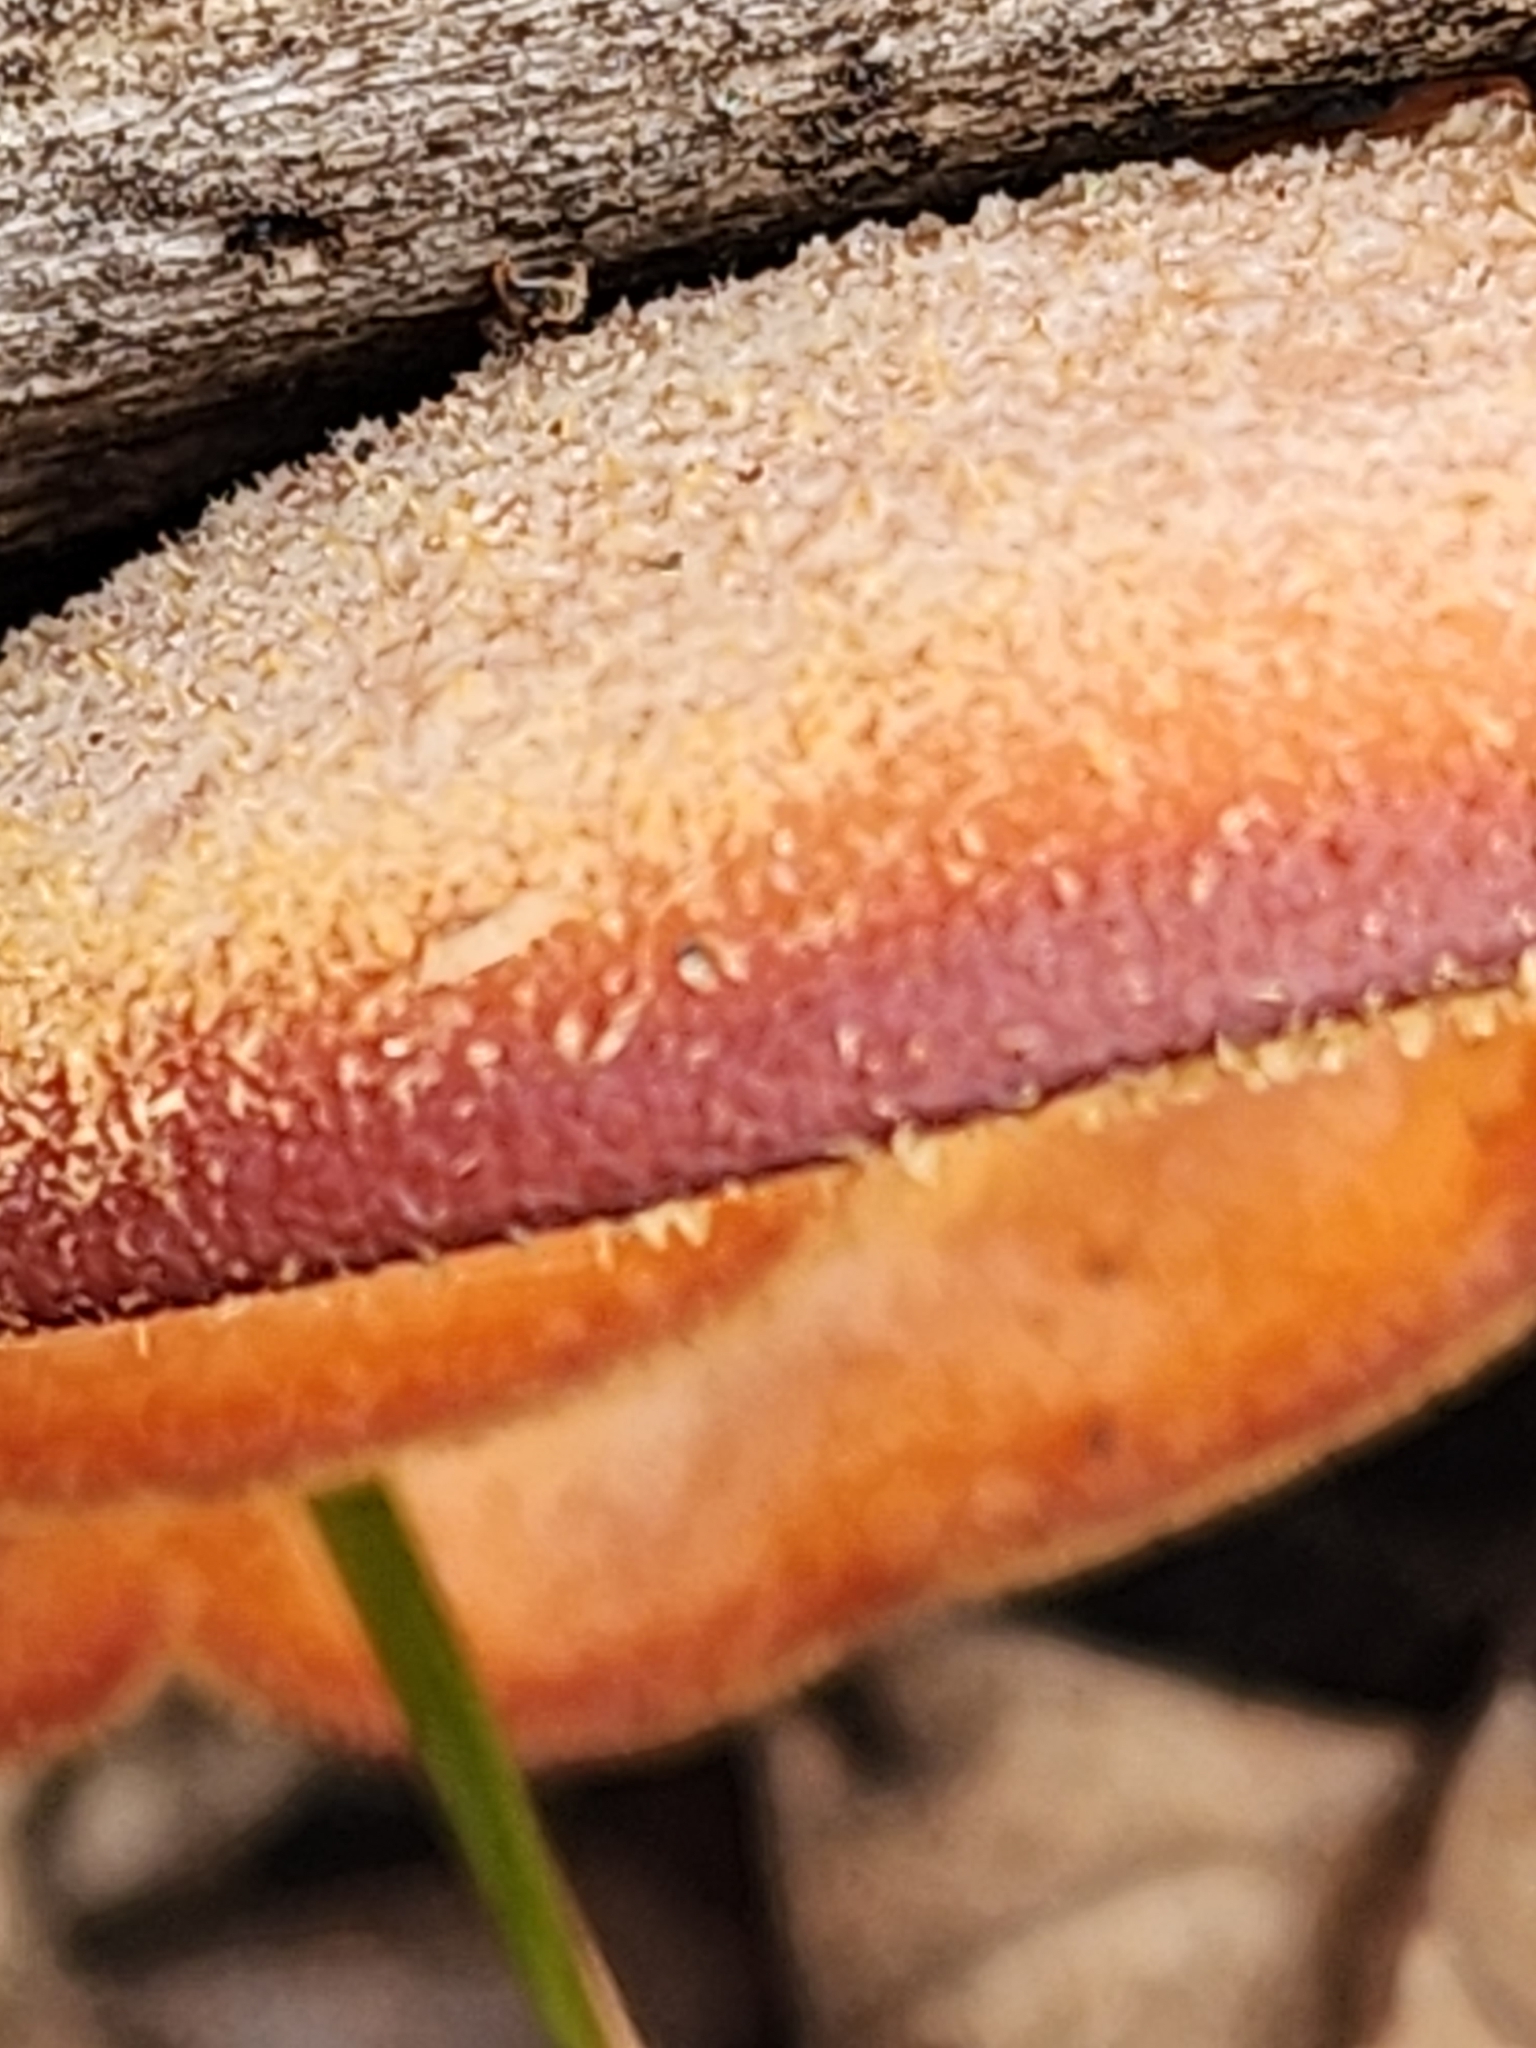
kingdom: Fungi
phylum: Basidiomycota
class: Agaricomycetes
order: Agaricales
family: Phyllotopsidaceae
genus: Phyllotopsis
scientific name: Phyllotopsis nidulans
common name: Orange mock oyster
